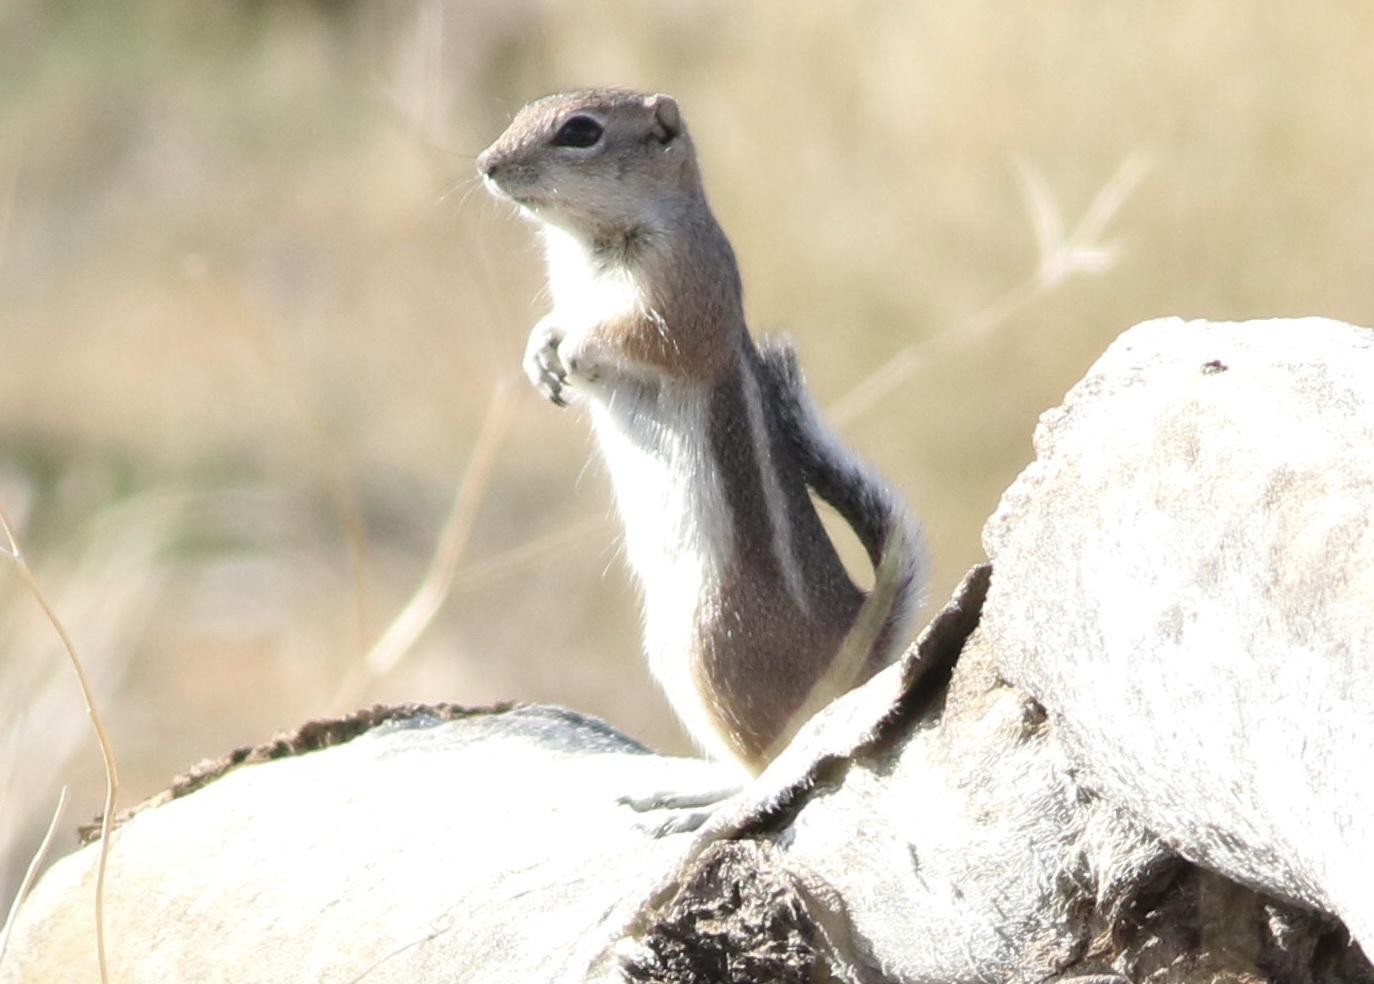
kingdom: Animalia
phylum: Chordata
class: Mammalia
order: Rodentia
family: Sciuridae
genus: Ammospermophilus
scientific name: Ammospermophilus leucurus
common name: White-tailed antelope squirrel
